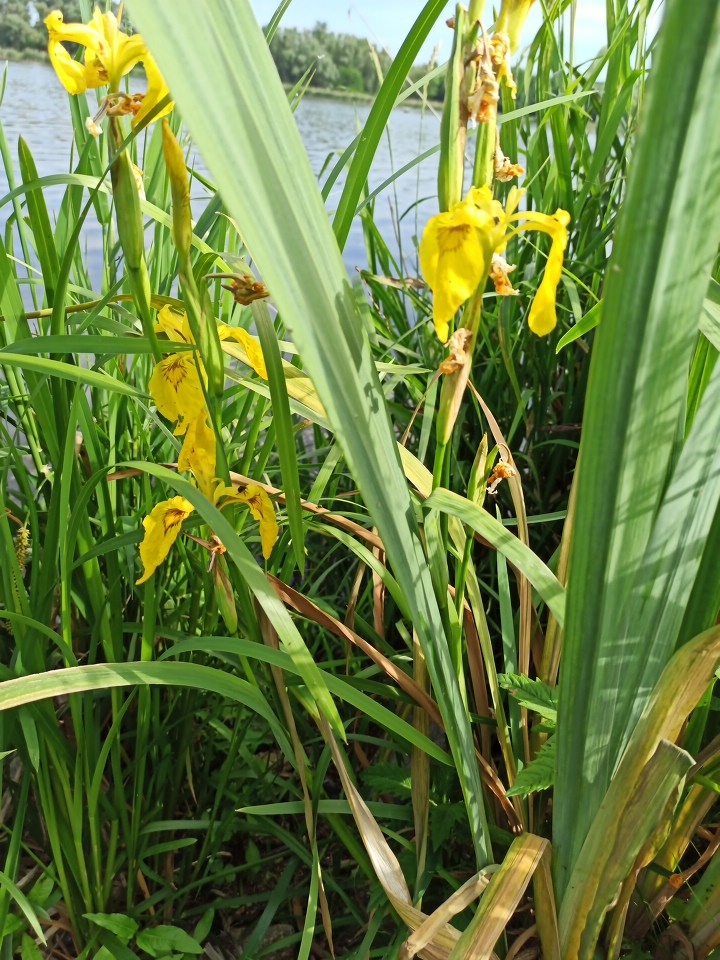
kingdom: Plantae
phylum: Tracheophyta
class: Liliopsida
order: Asparagales
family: Iridaceae
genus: Iris
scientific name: Iris pseudacorus
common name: Yellow flag
